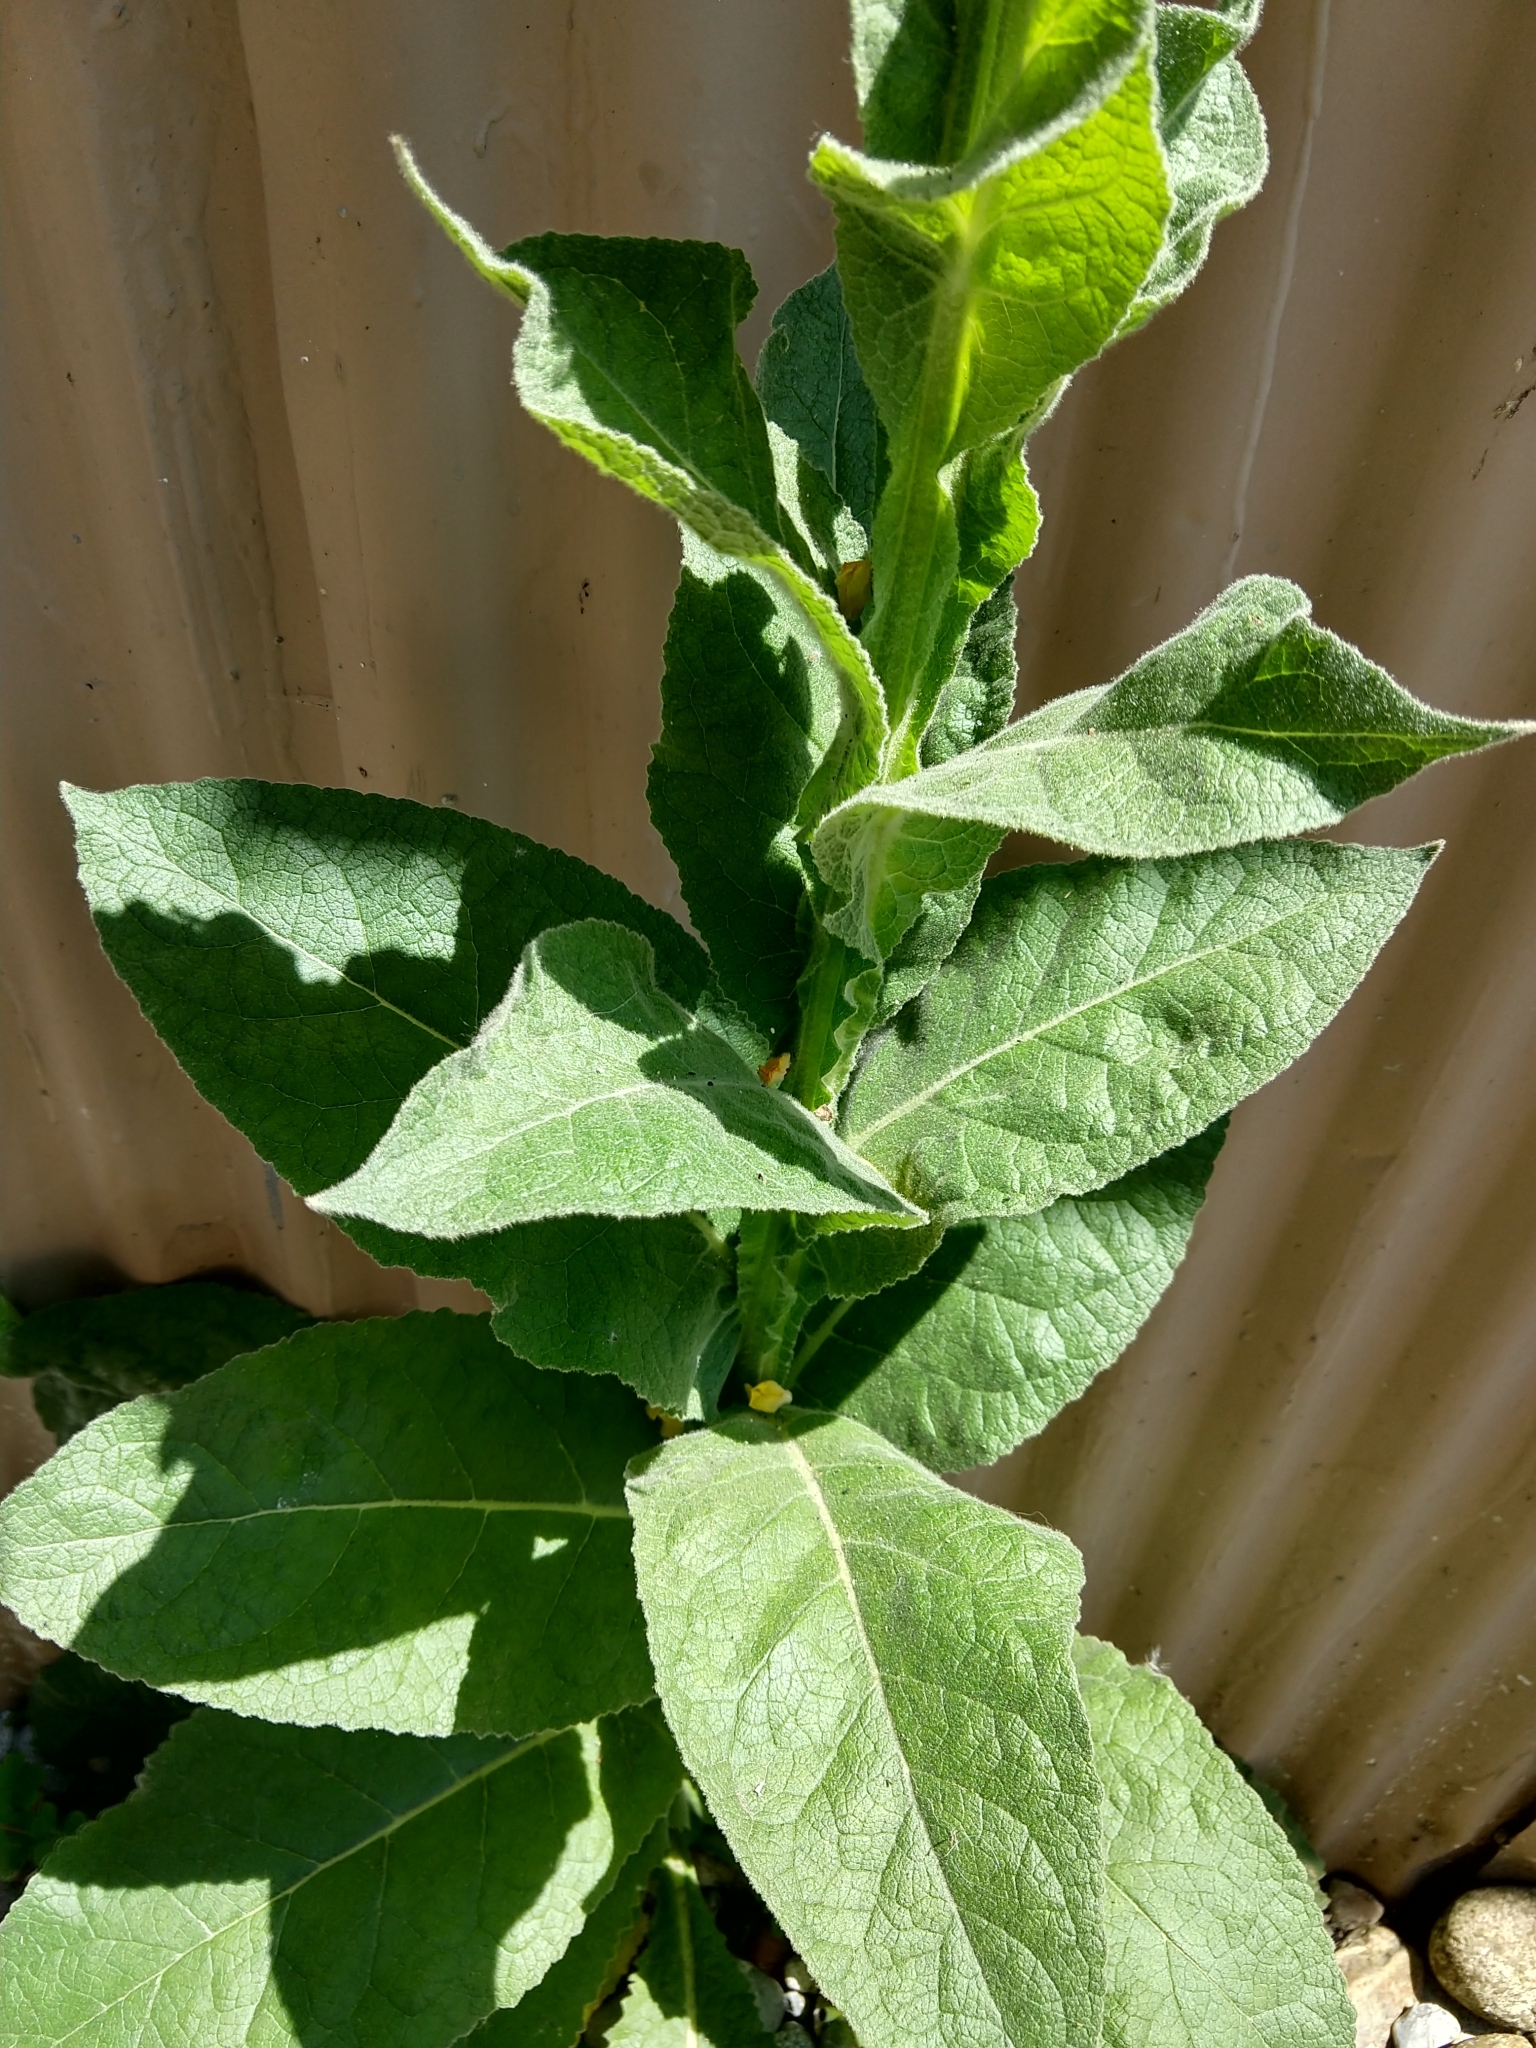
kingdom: Plantae
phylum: Tracheophyta
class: Magnoliopsida
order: Lamiales
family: Scrophulariaceae
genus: Verbascum
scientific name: Verbascum thapsus
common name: Common mullein
